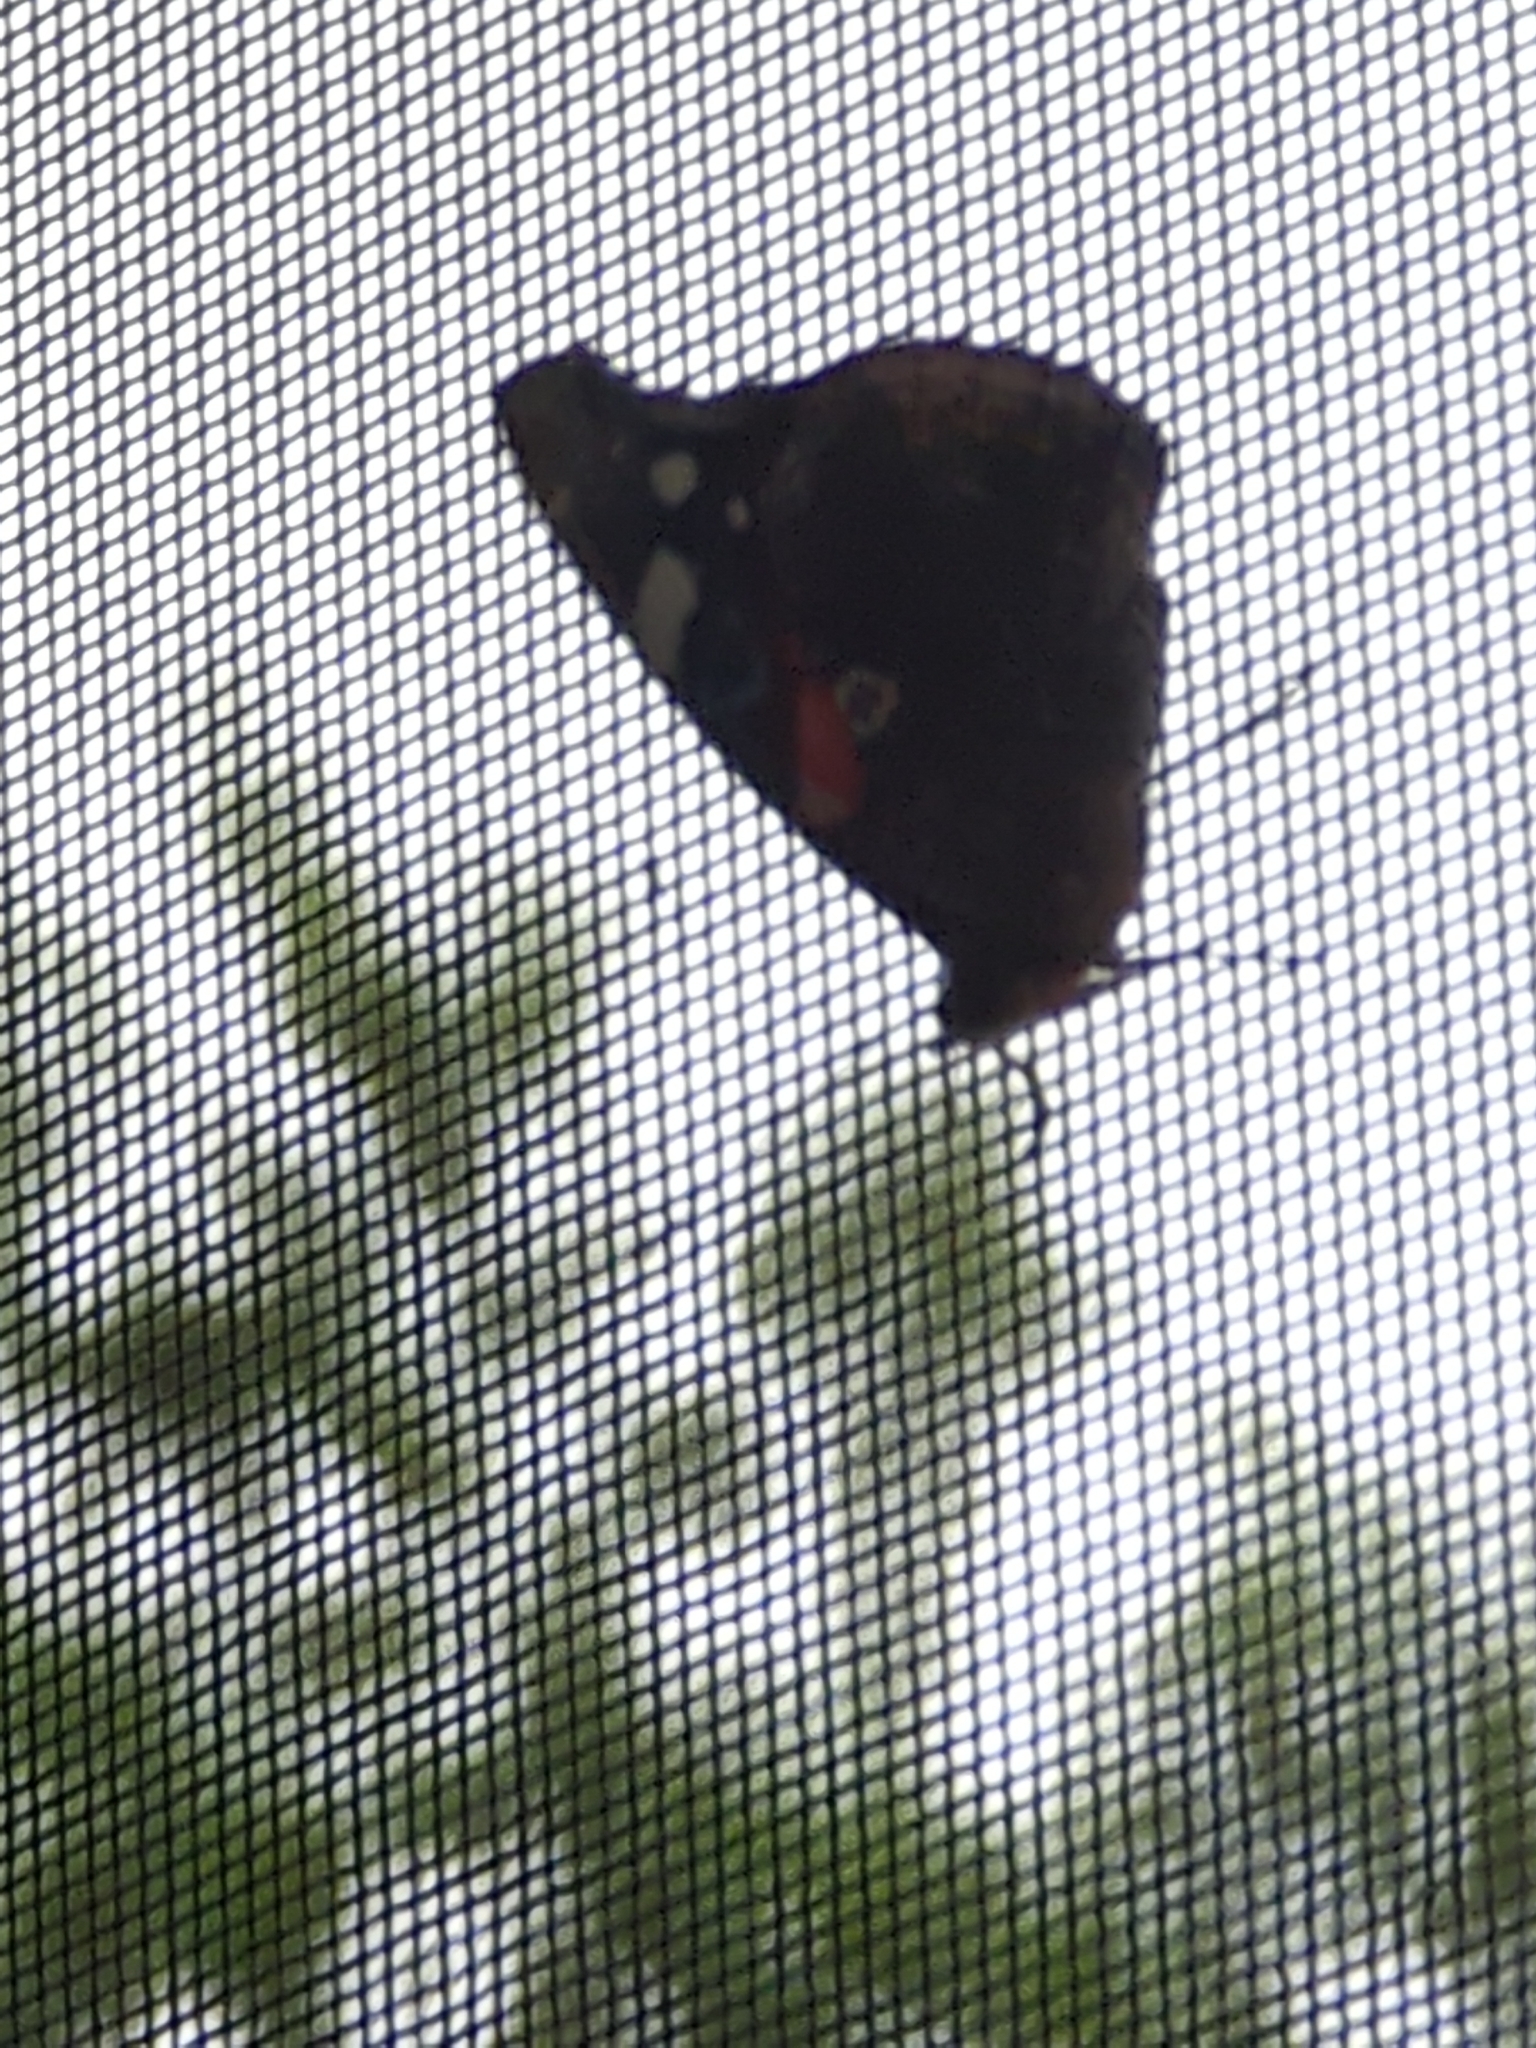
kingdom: Animalia
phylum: Arthropoda
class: Insecta
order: Lepidoptera
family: Nymphalidae
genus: Vanessa
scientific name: Vanessa atalanta
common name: Red admiral
